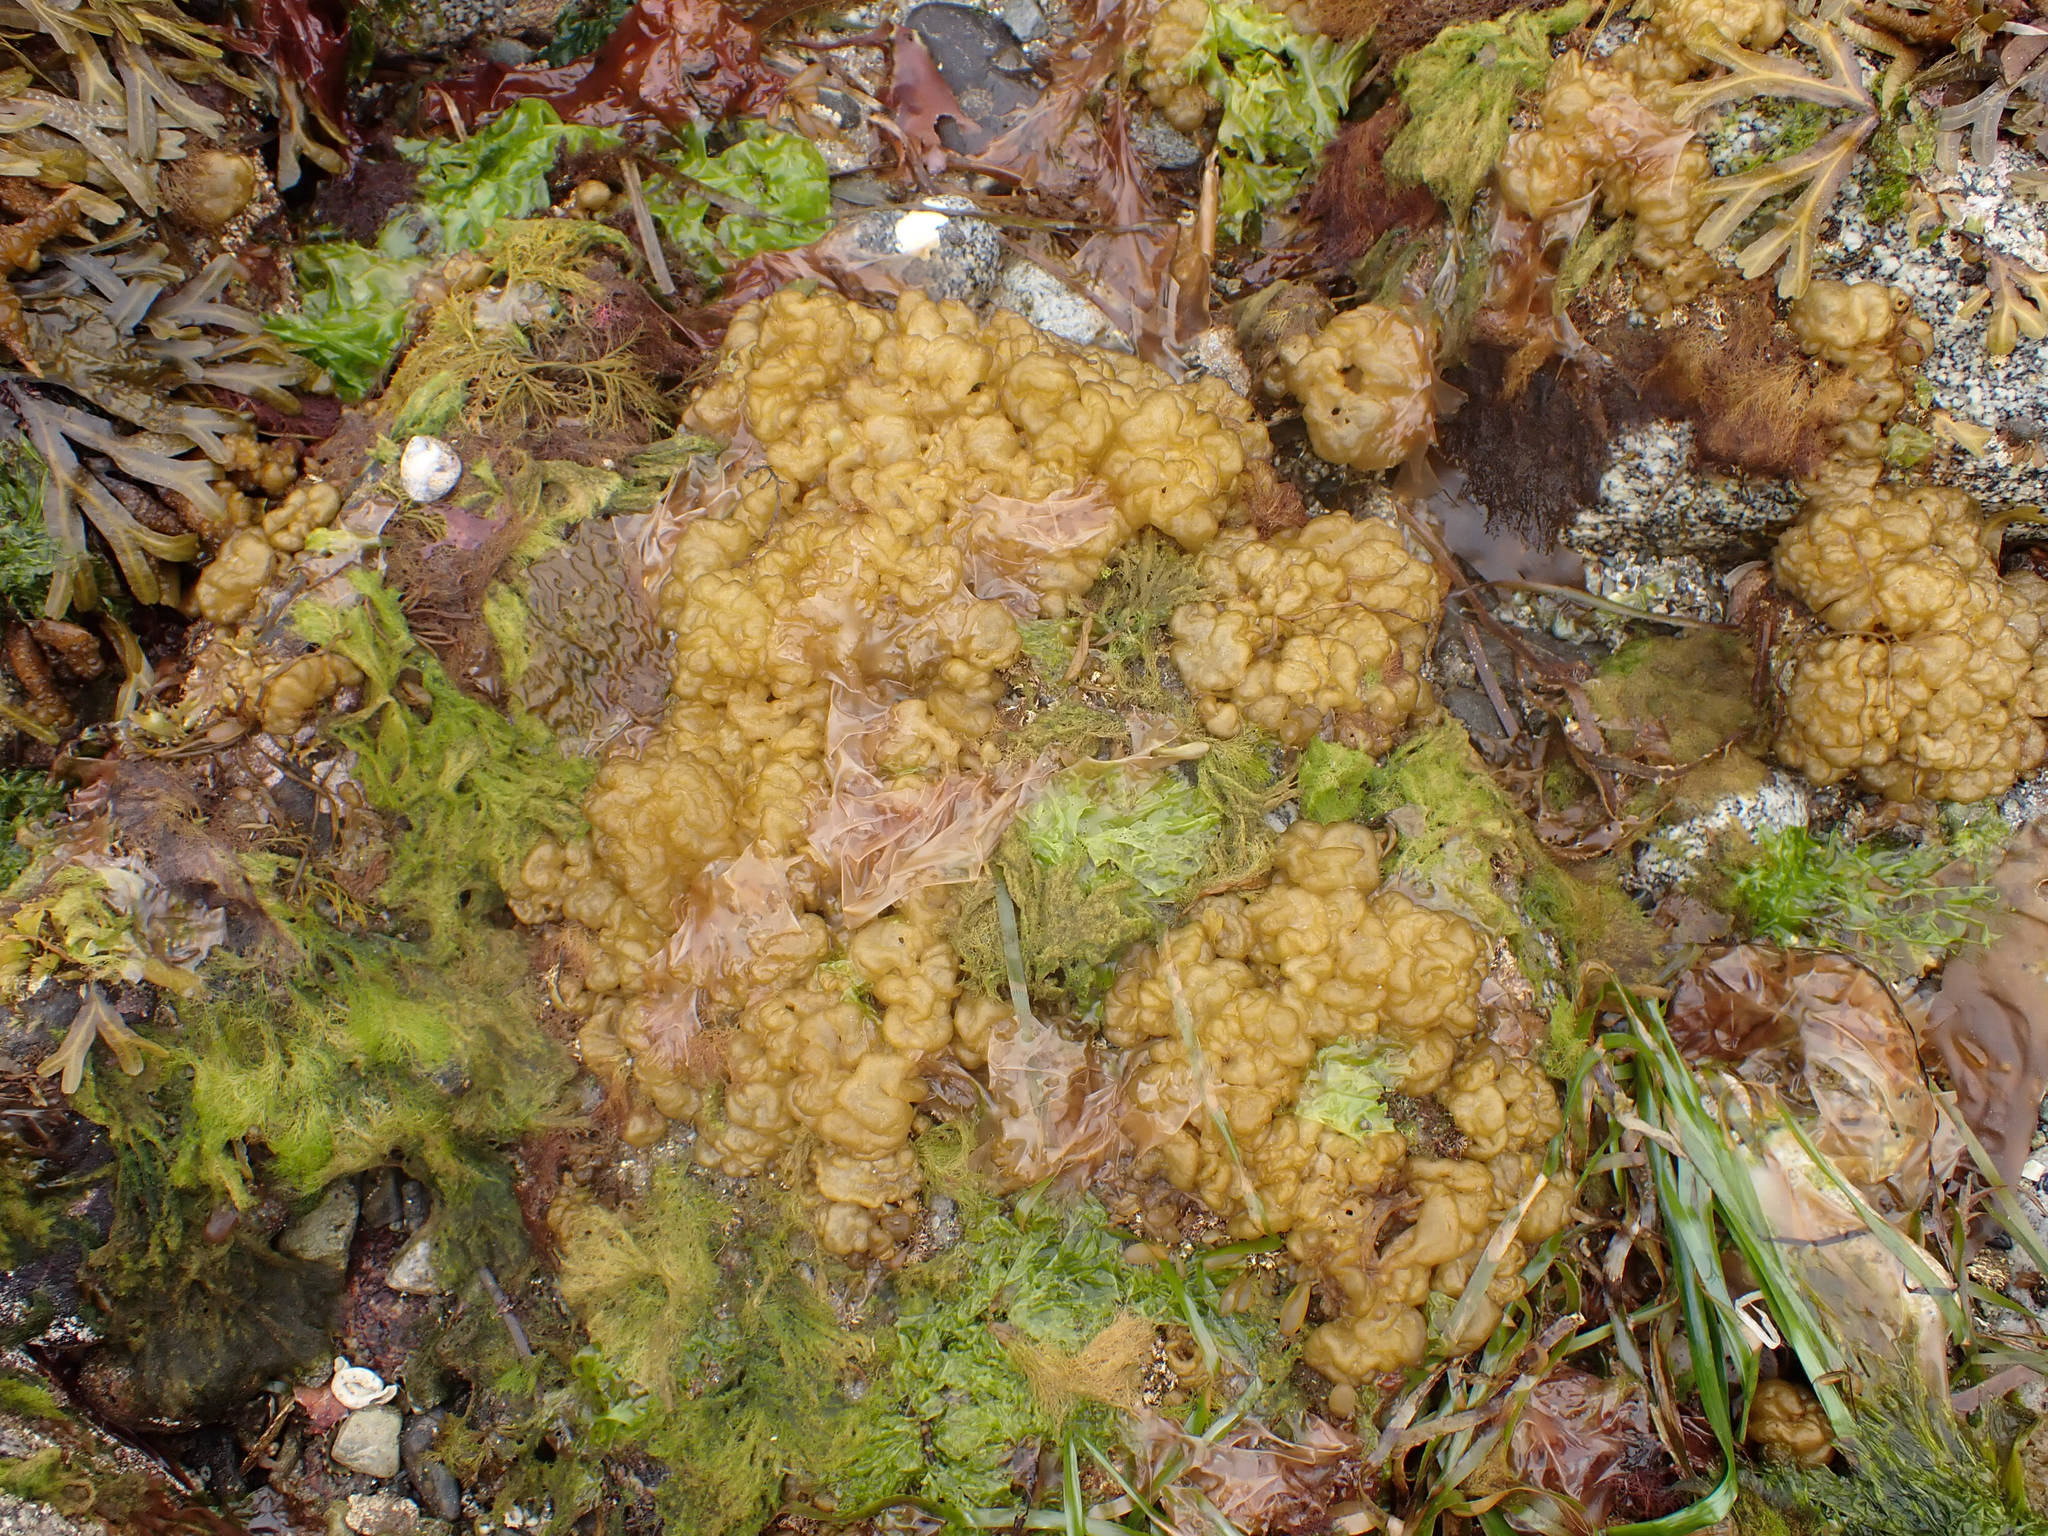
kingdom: Chromista
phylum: Ochrophyta
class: Phaeophyceae
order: Ectocarpales
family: Chordariaceae
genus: Leathesia
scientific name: Leathesia marina
